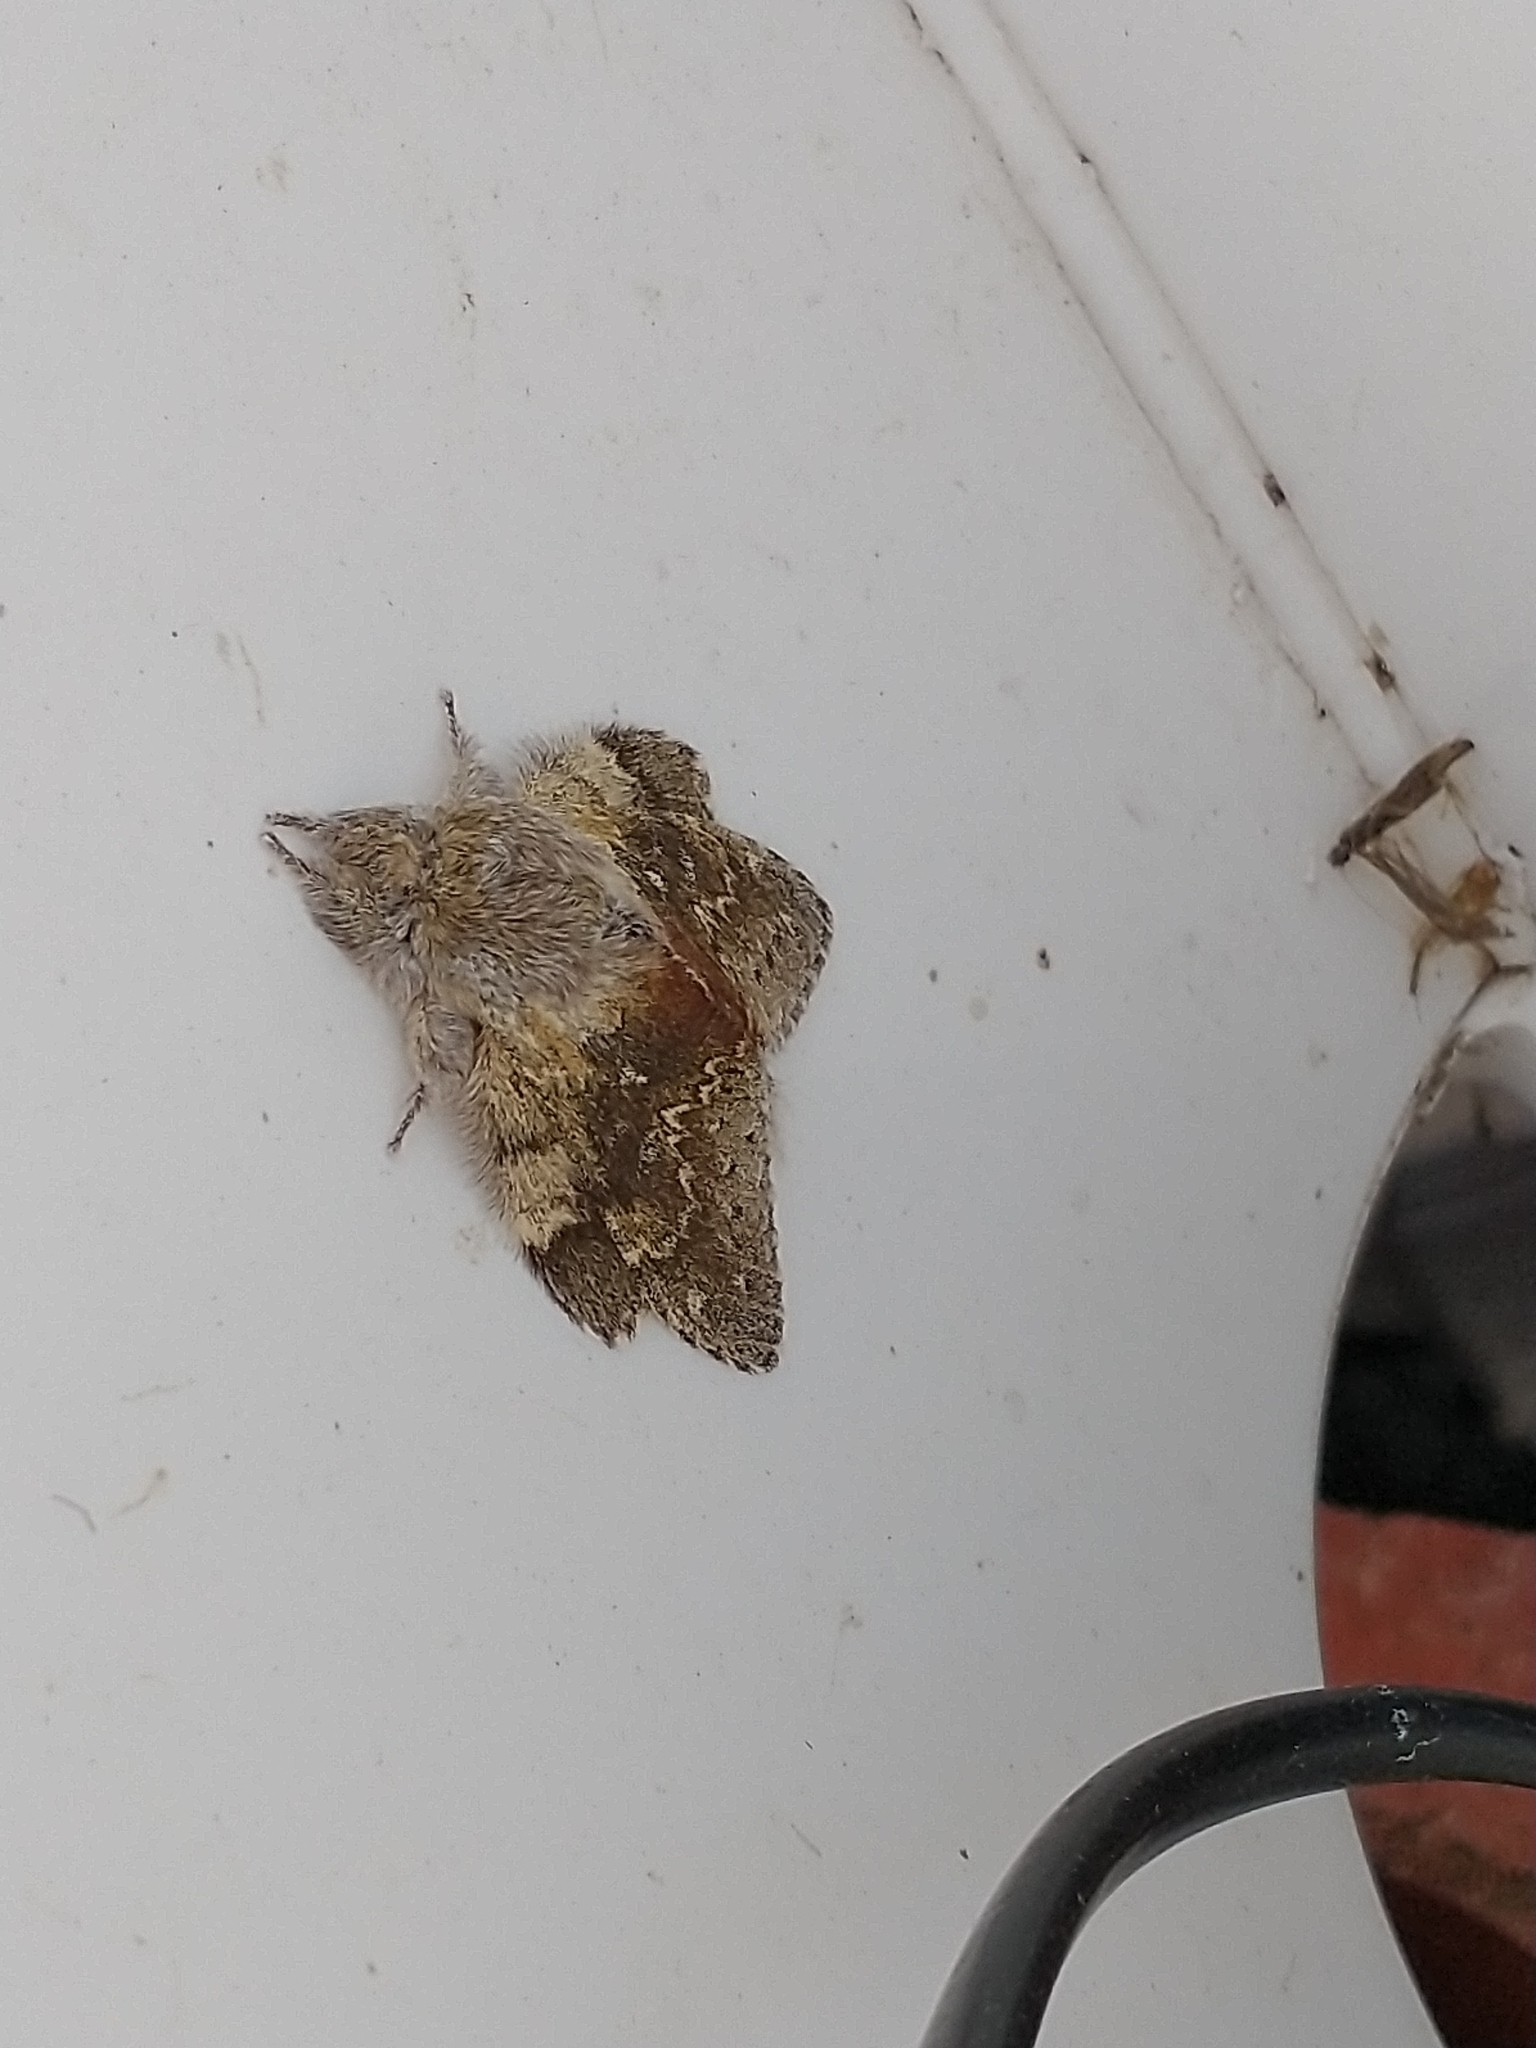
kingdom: Animalia
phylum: Arthropoda
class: Insecta
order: Lepidoptera
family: Notodontidae
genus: Stauropus
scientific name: Stauropus fagi
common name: Lobster moth
